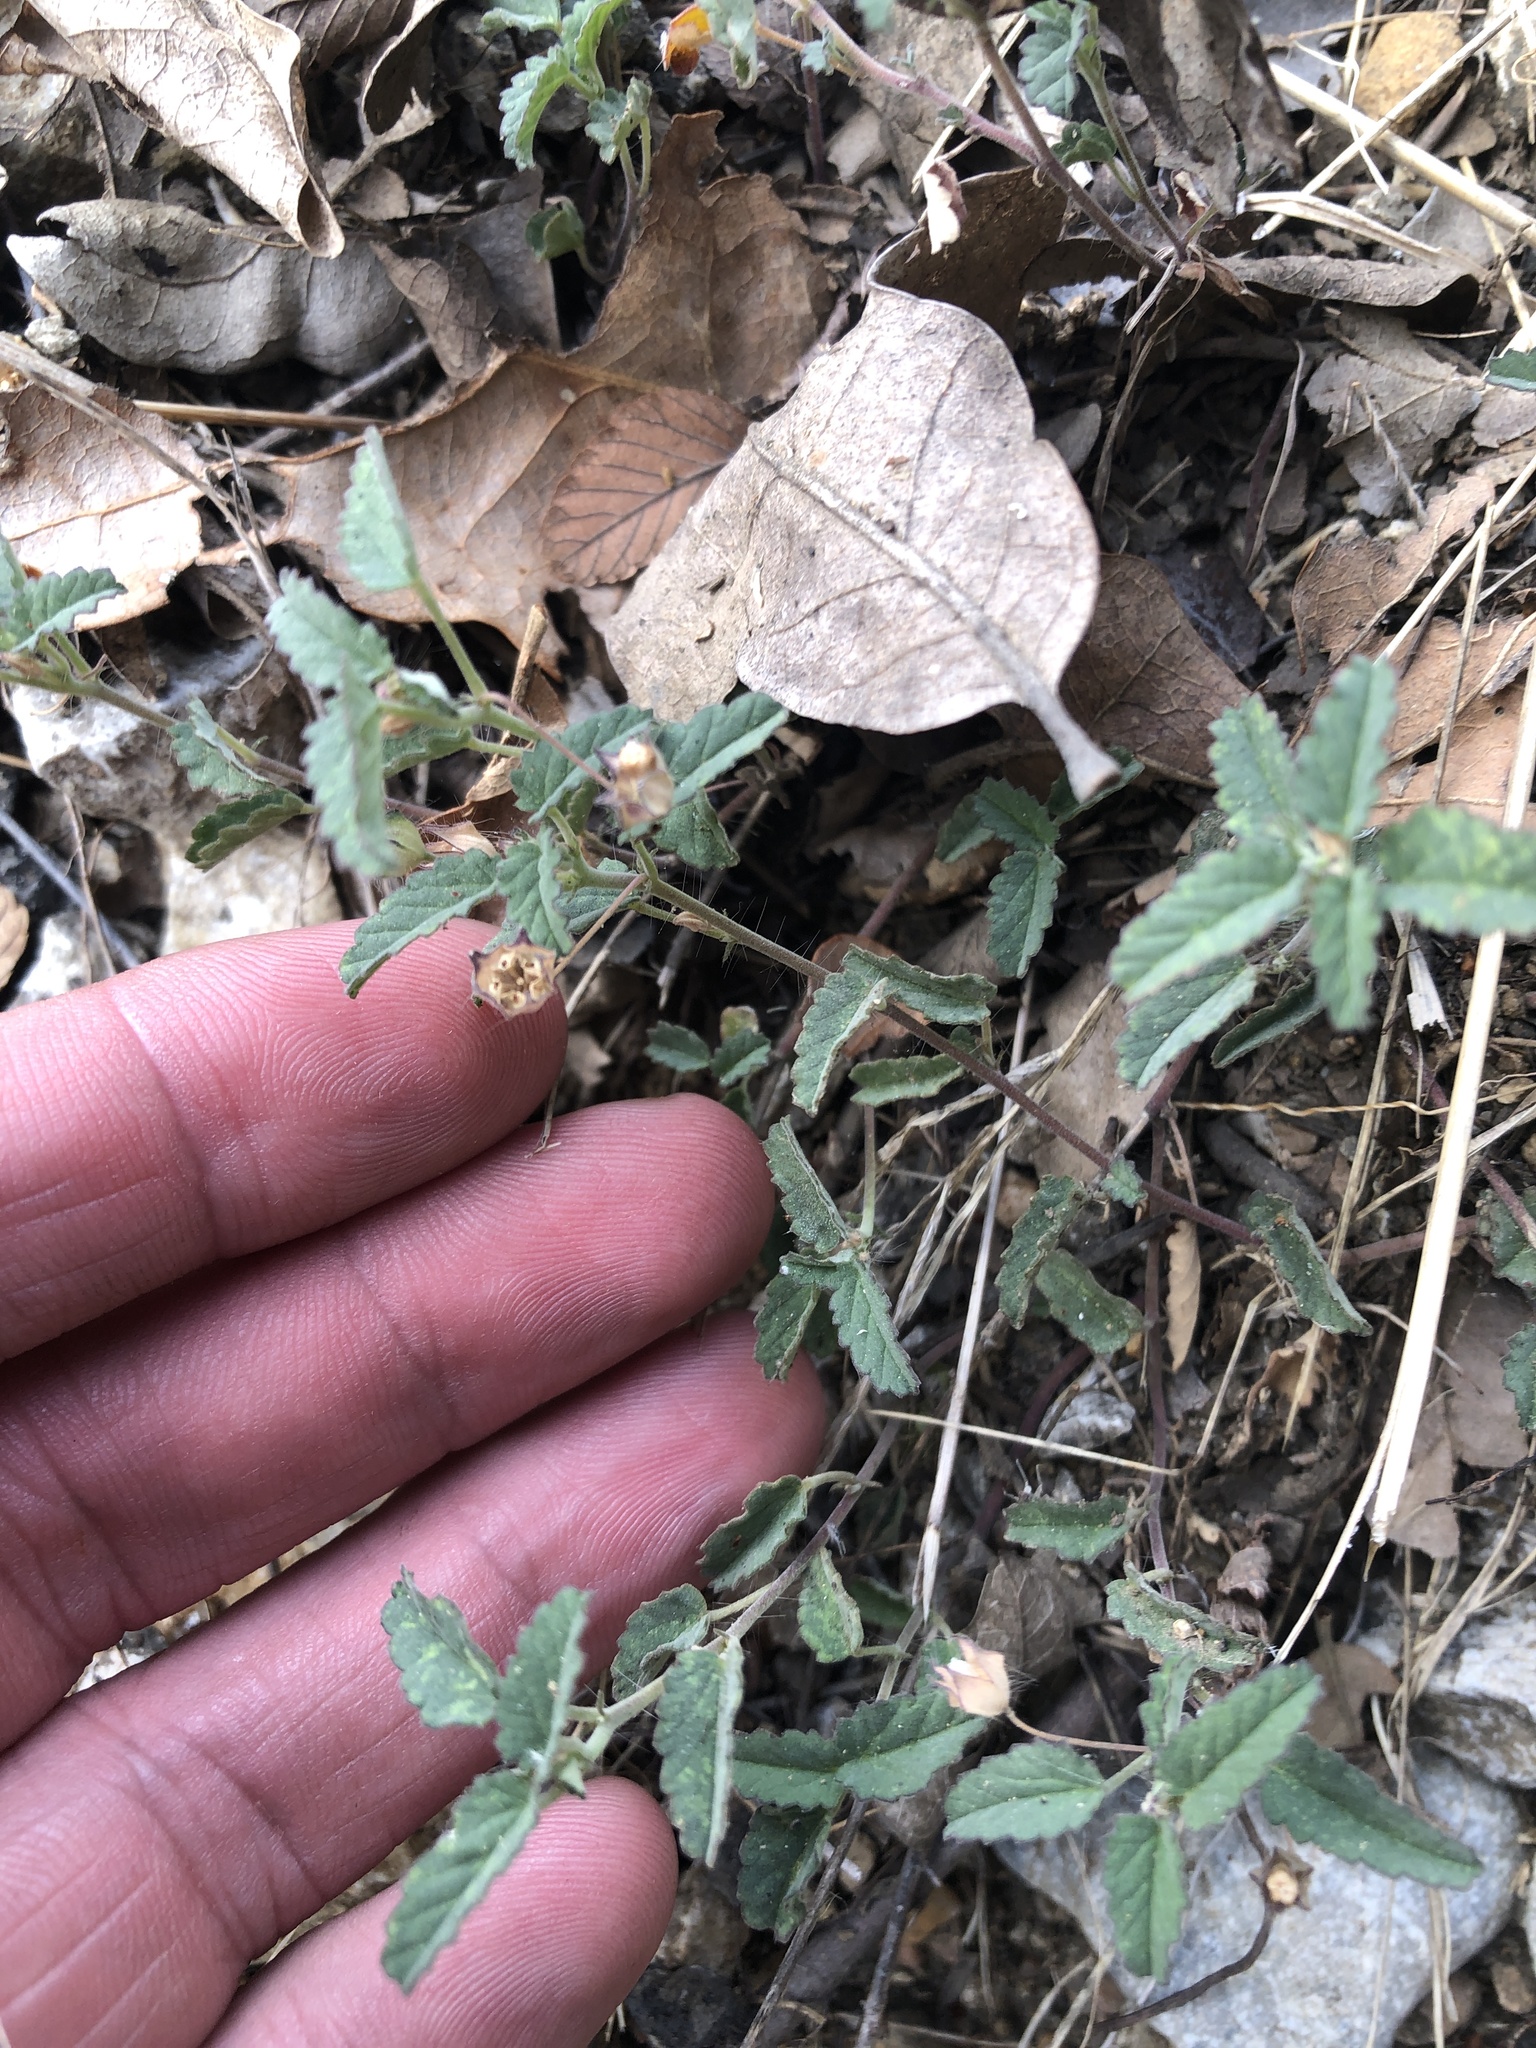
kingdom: Plantae
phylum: Tracheophyta
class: Magnoliopsida
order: Malvales
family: Malvaceae
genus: Sida
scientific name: Sida abutilifolia
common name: Spreading fanpetals
